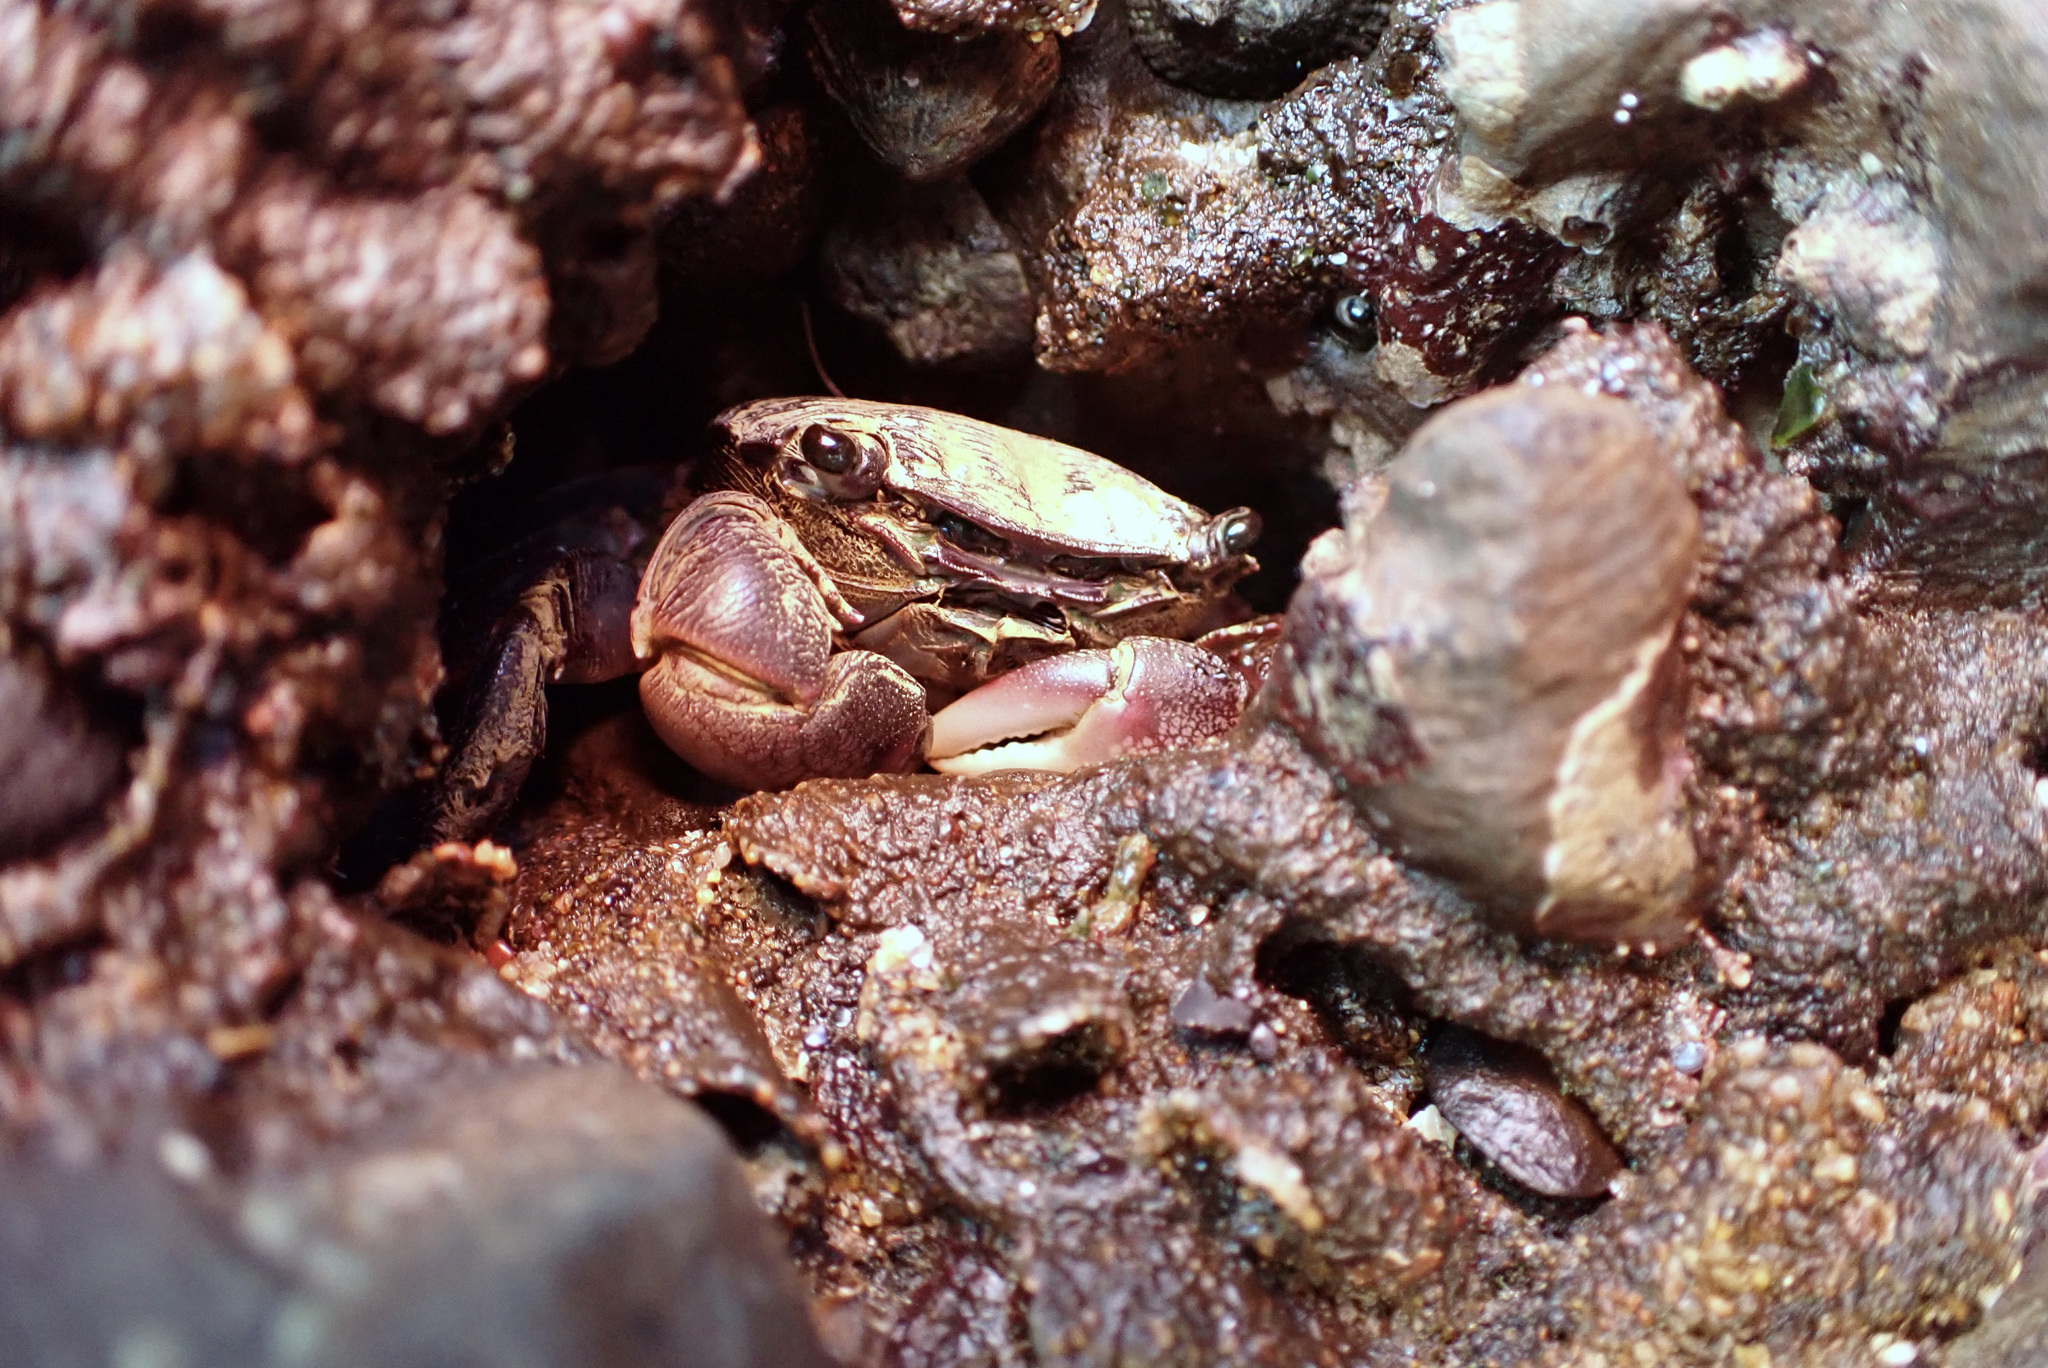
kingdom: Animalia
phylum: Arthropoda
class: Malacostraca
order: Decapoda
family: Grapsidae
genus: Pachygrapsus
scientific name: Pachygrapsus crassipes
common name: Striped shore crab
